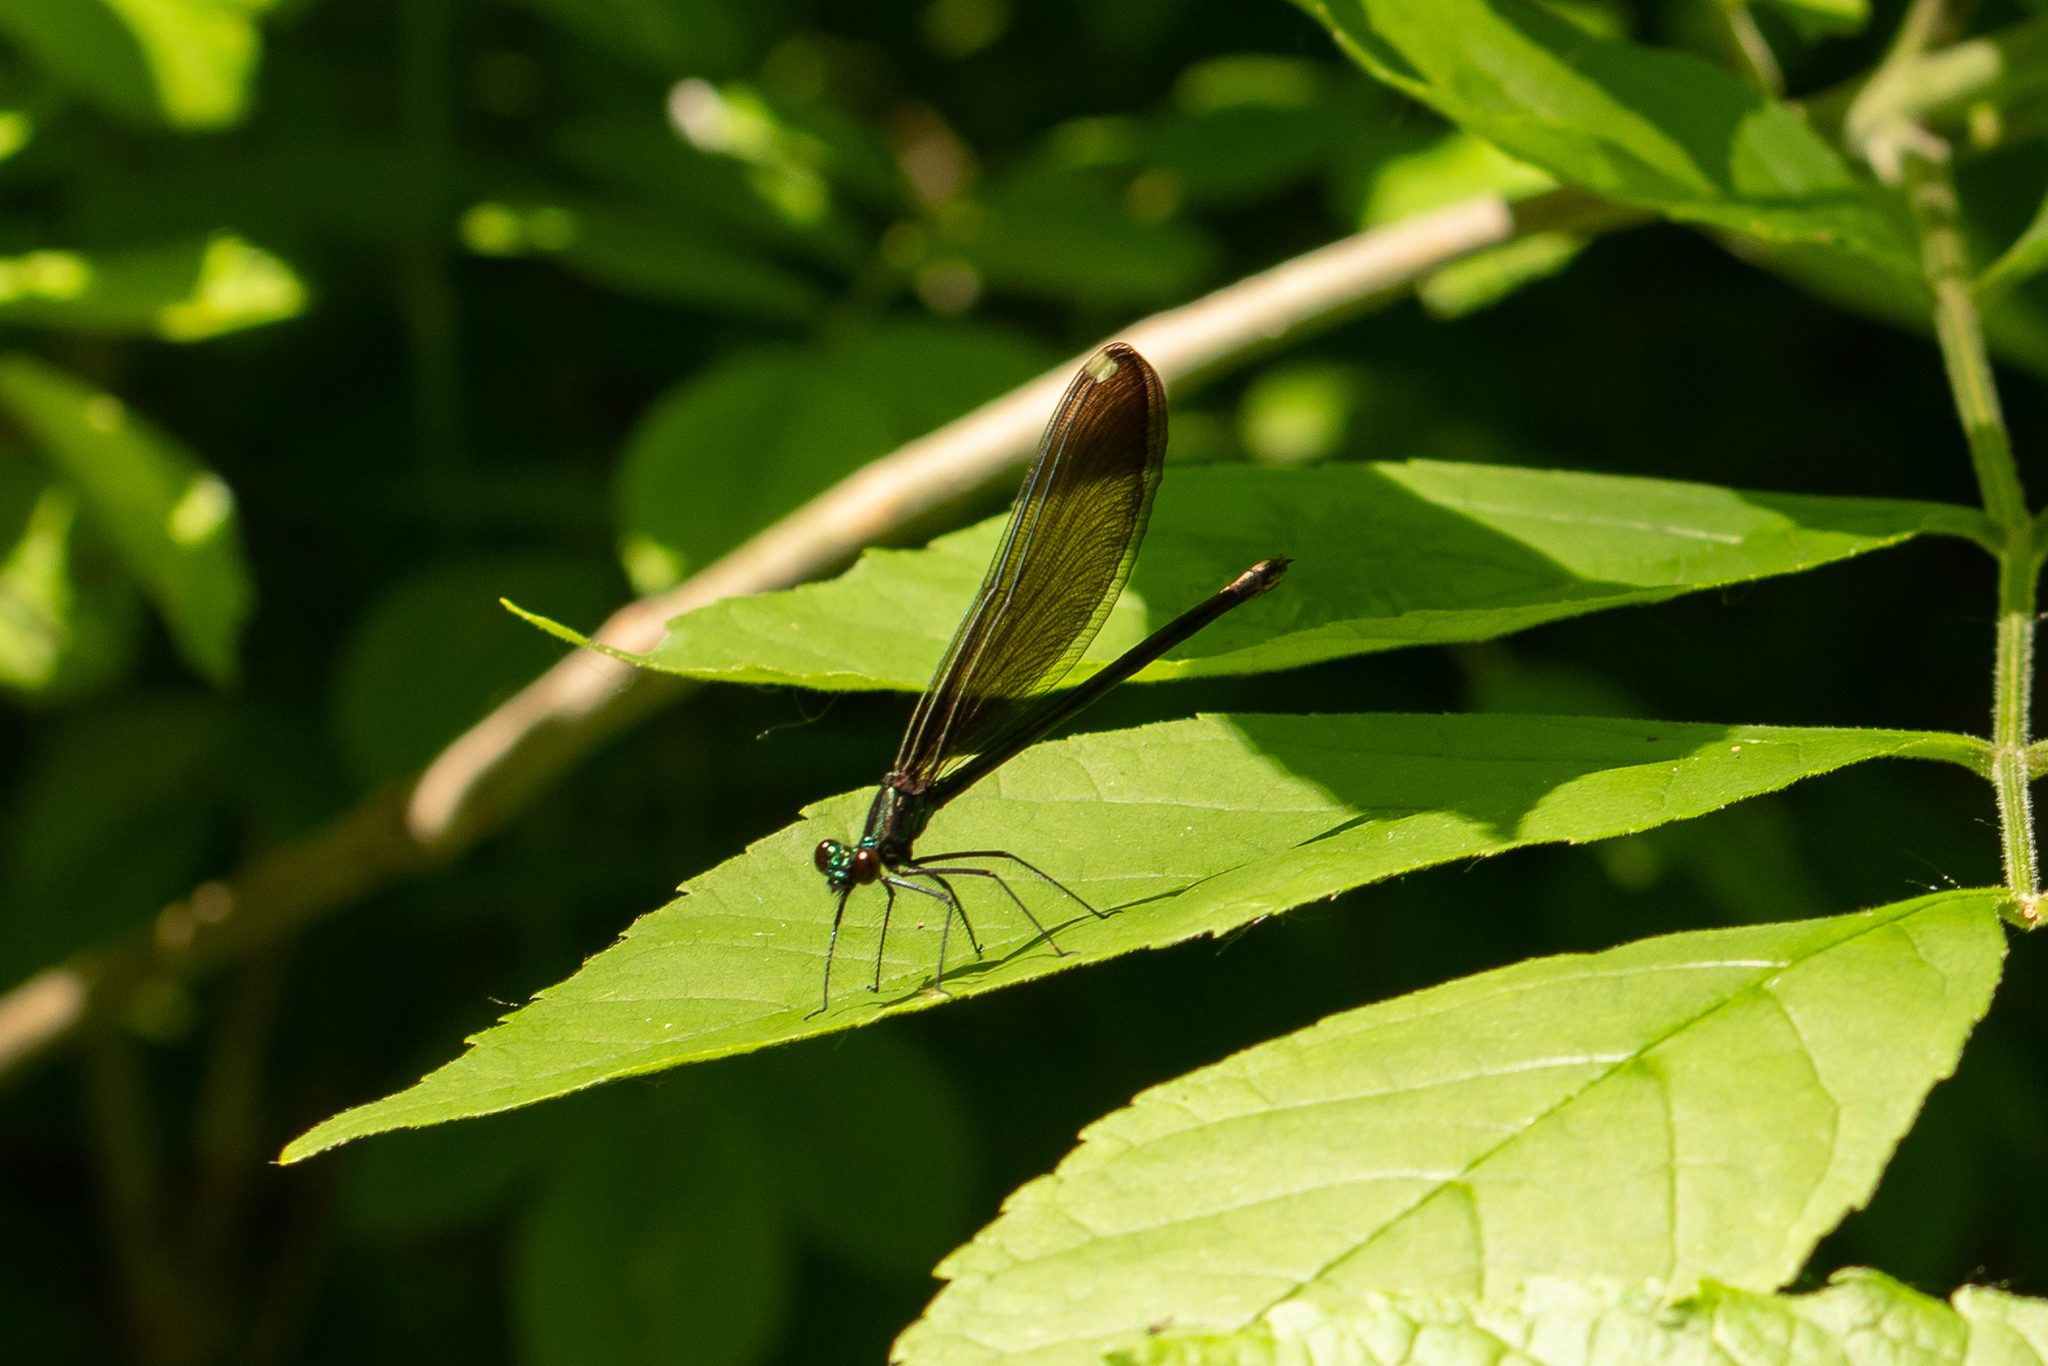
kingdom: Animalia
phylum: Arthropoda
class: Insecta
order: Odonata
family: Calopterygidae
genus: Calopteryx
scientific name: Calopteryx maculata
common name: Ebony jewelwing
